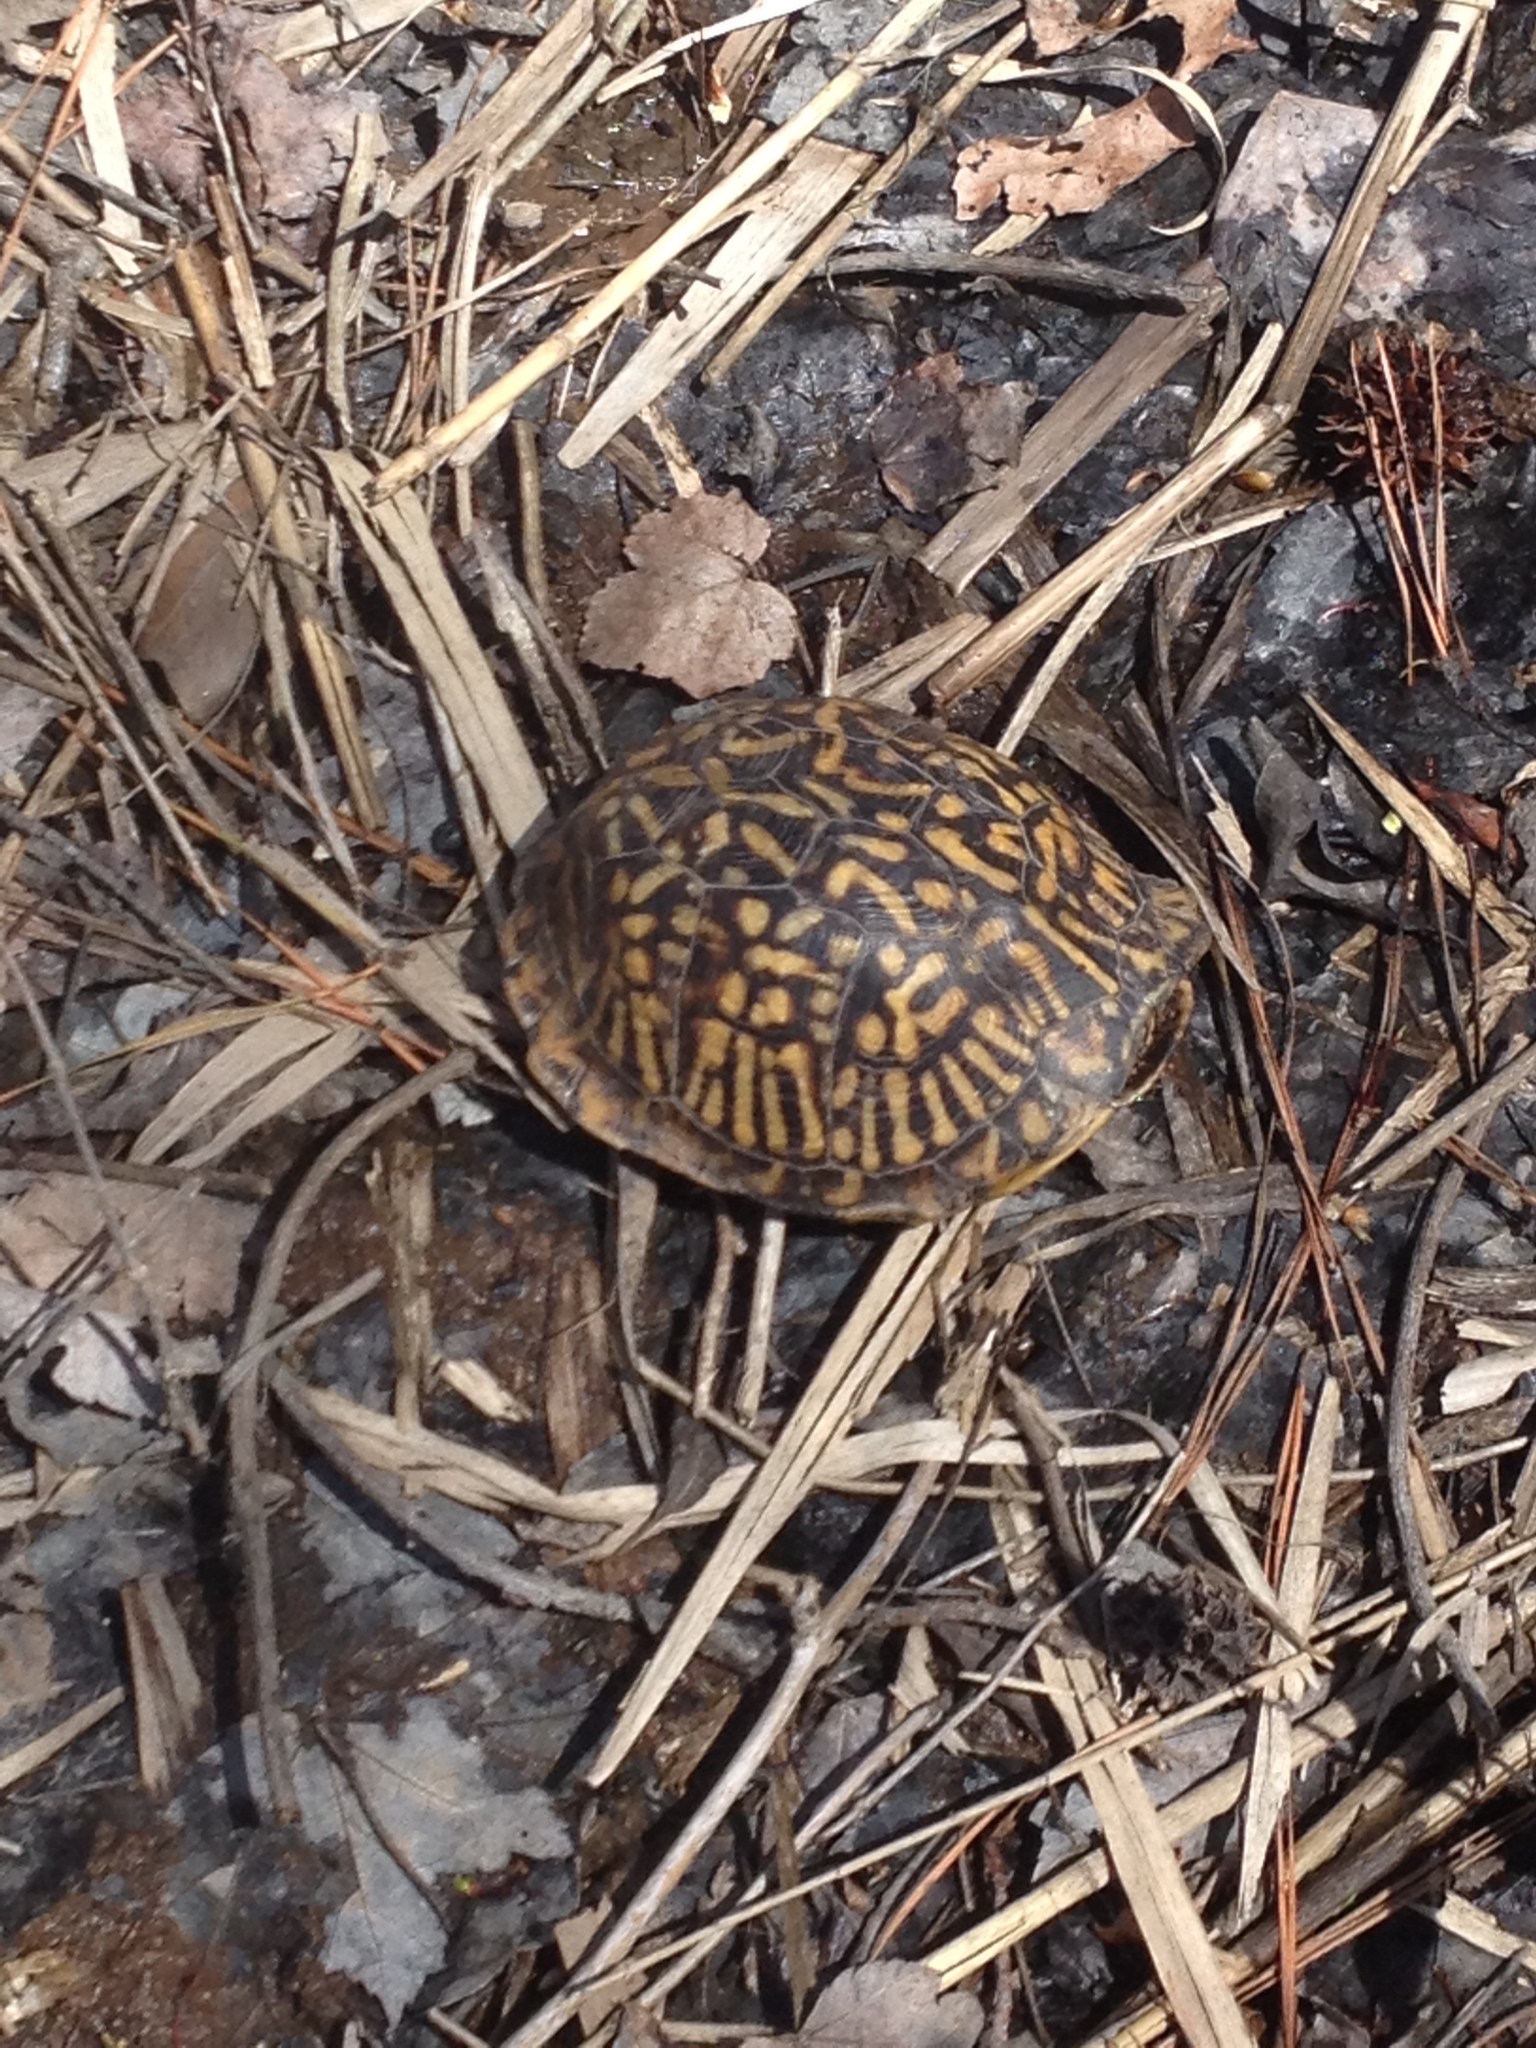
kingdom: Animalia
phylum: Chordata
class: Testudines
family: Emydidae
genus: Terrapene
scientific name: Terrapene carolina
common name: Common box turtle
